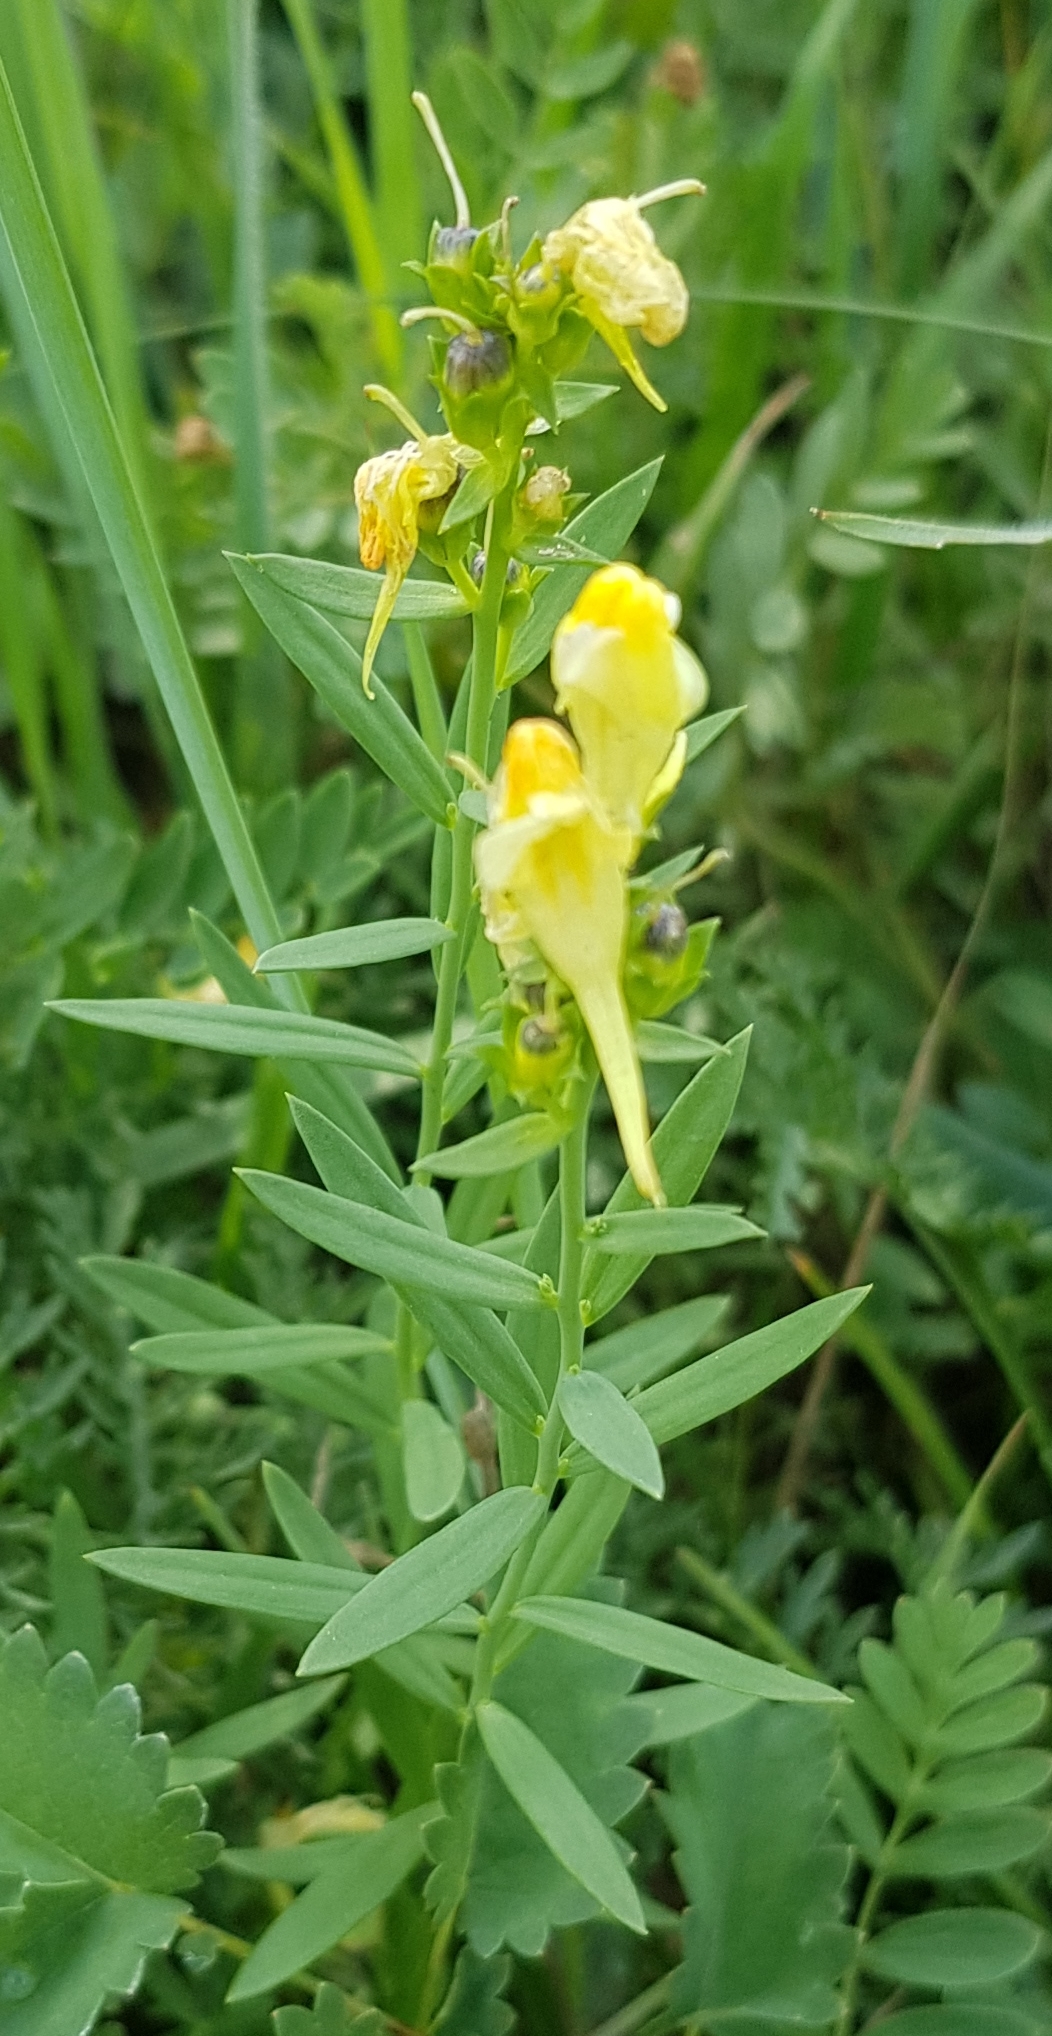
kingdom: Plantae
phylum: Tracheophyta
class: Magnoliopsida
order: Lamiales
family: Plantaginaceae
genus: Linaria
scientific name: Linaria buriatica
